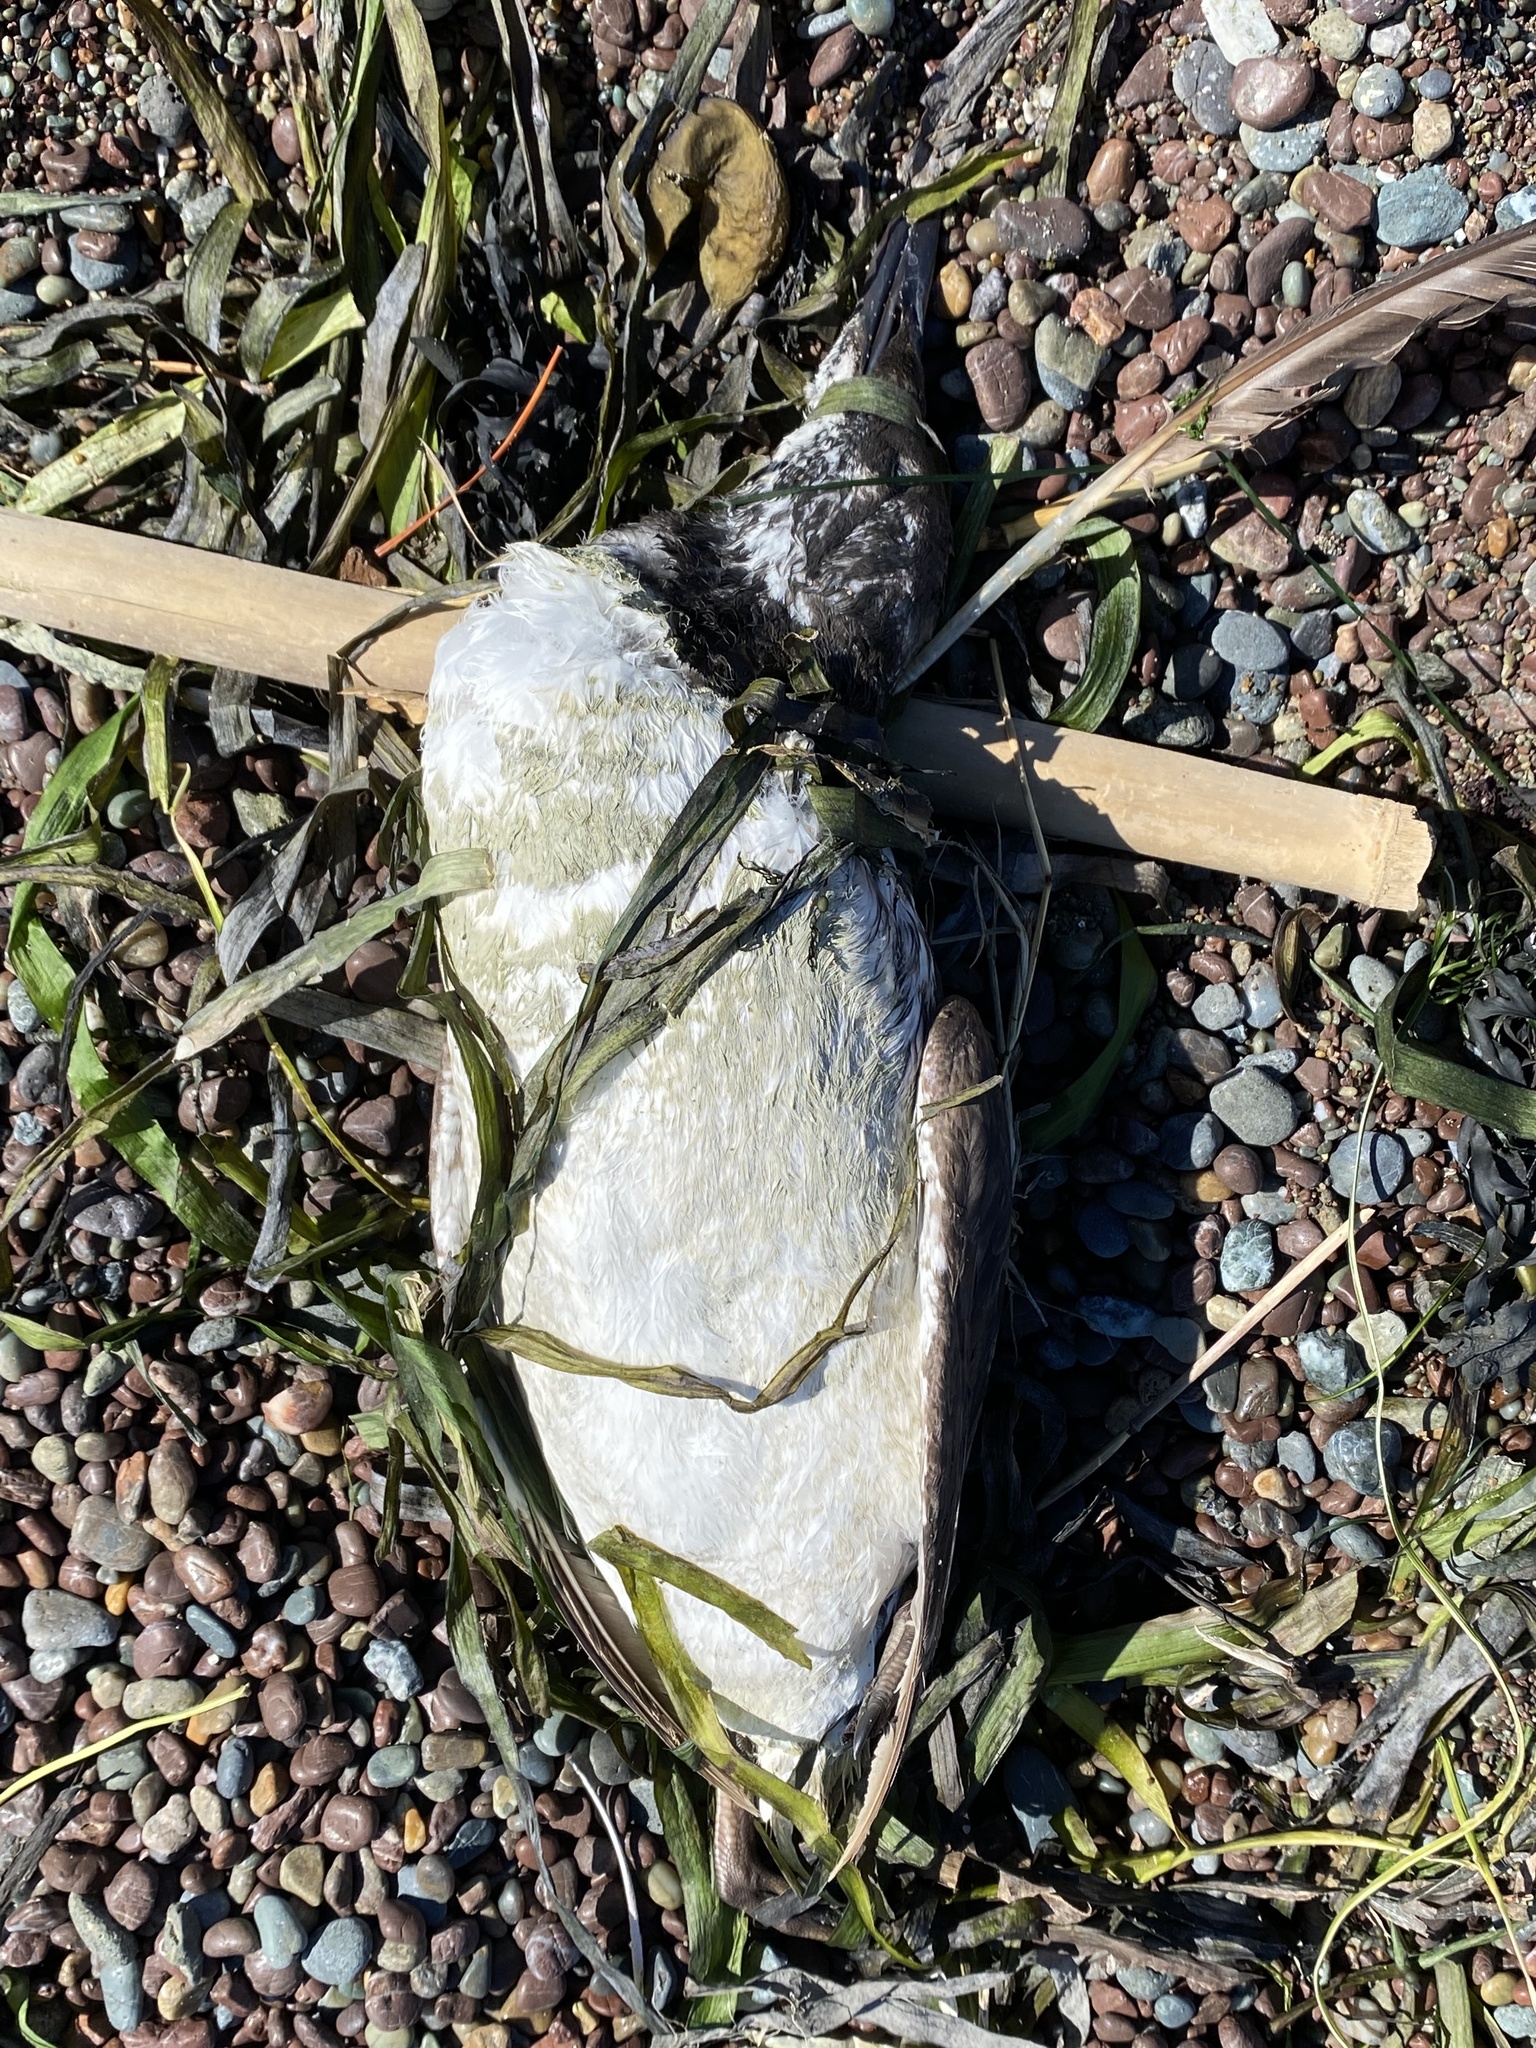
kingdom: Animalia
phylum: Chordata
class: Aves
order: Charadriiformes
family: Alcidae
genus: Uria
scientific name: Uria aalge
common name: Common murre
